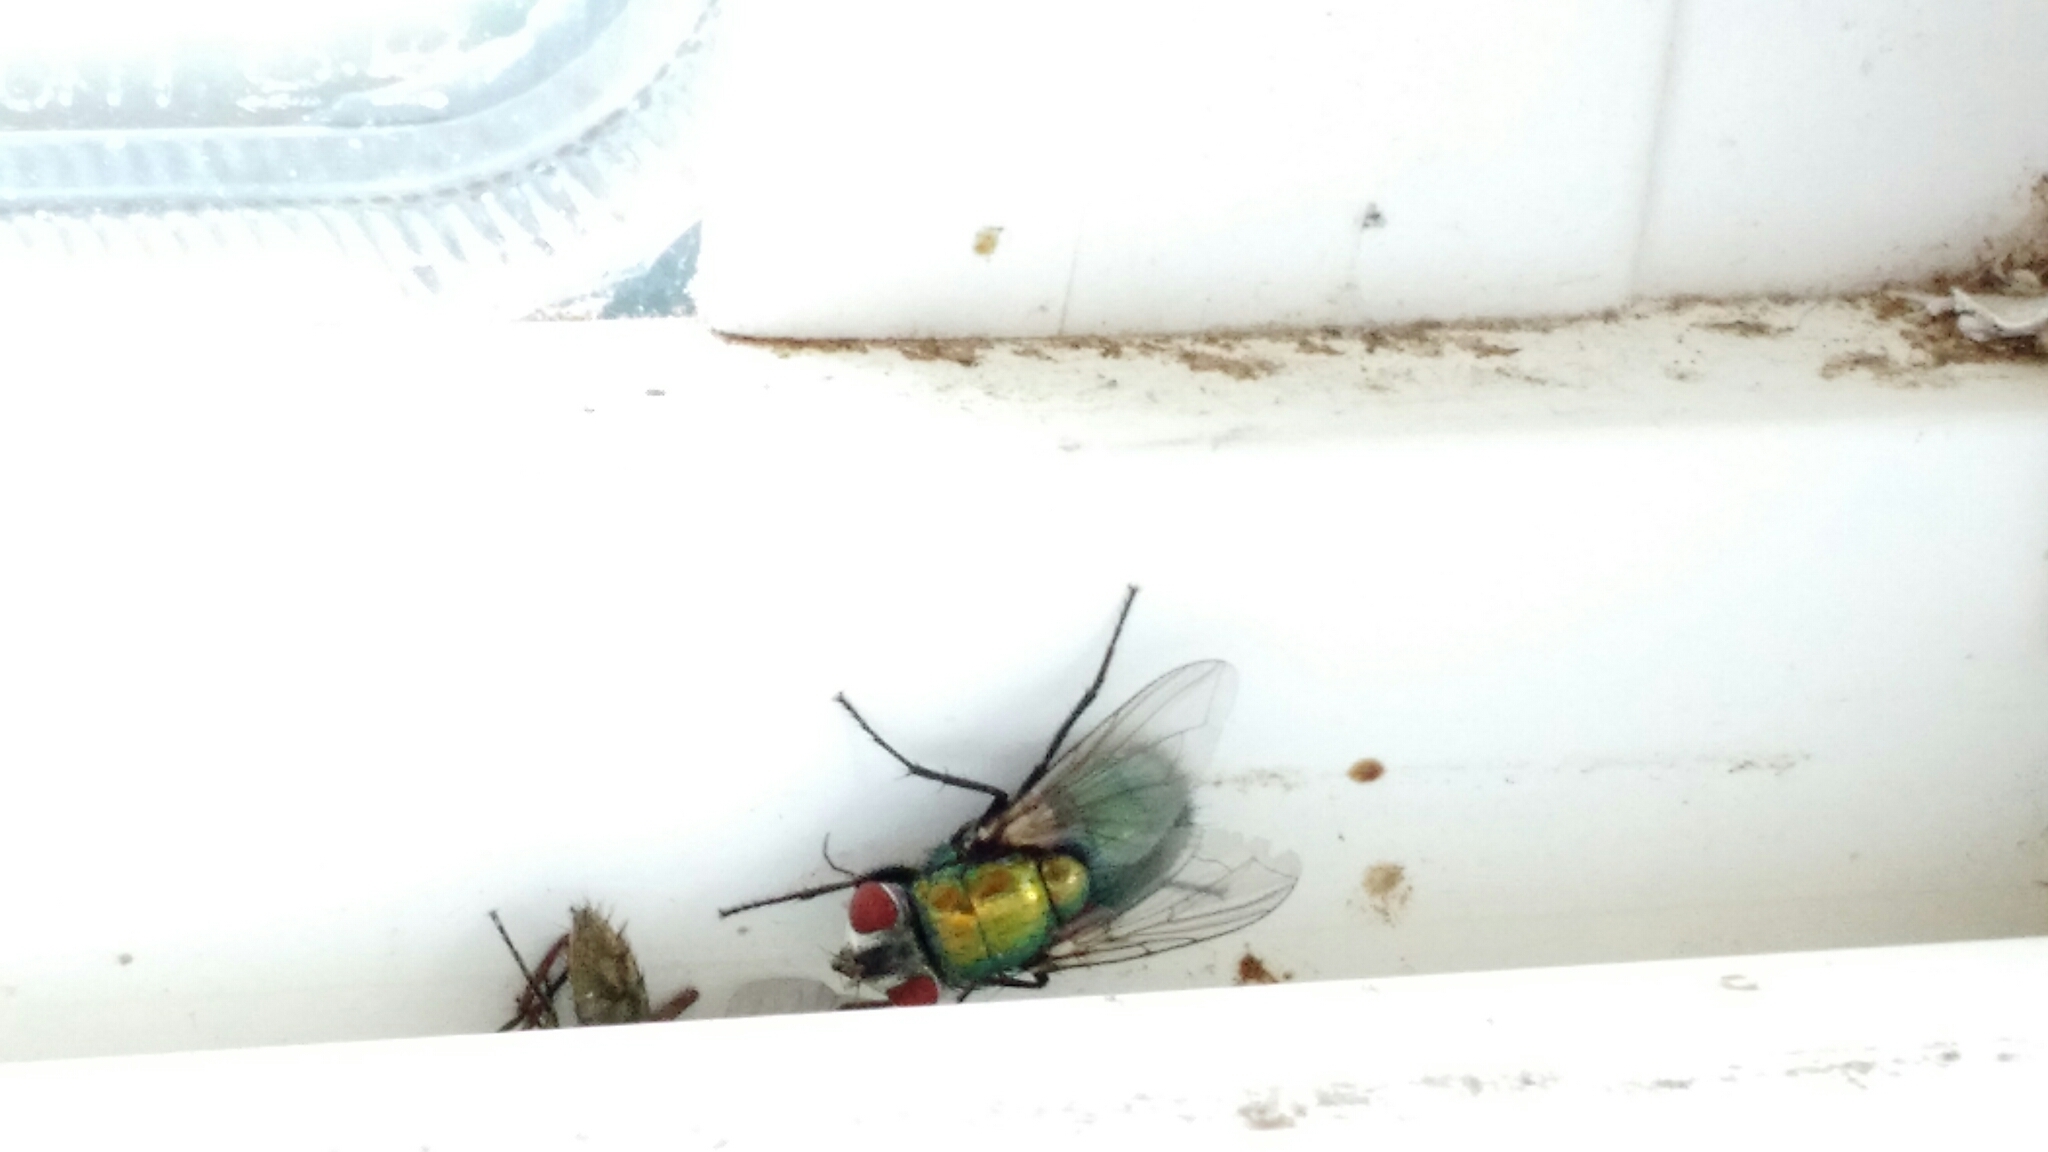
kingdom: Animalia
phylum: Arthropoda
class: Insecta
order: Diptera
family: Calliphoridae
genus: Lucilia
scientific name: Lucilia sericata
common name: Blow fly
